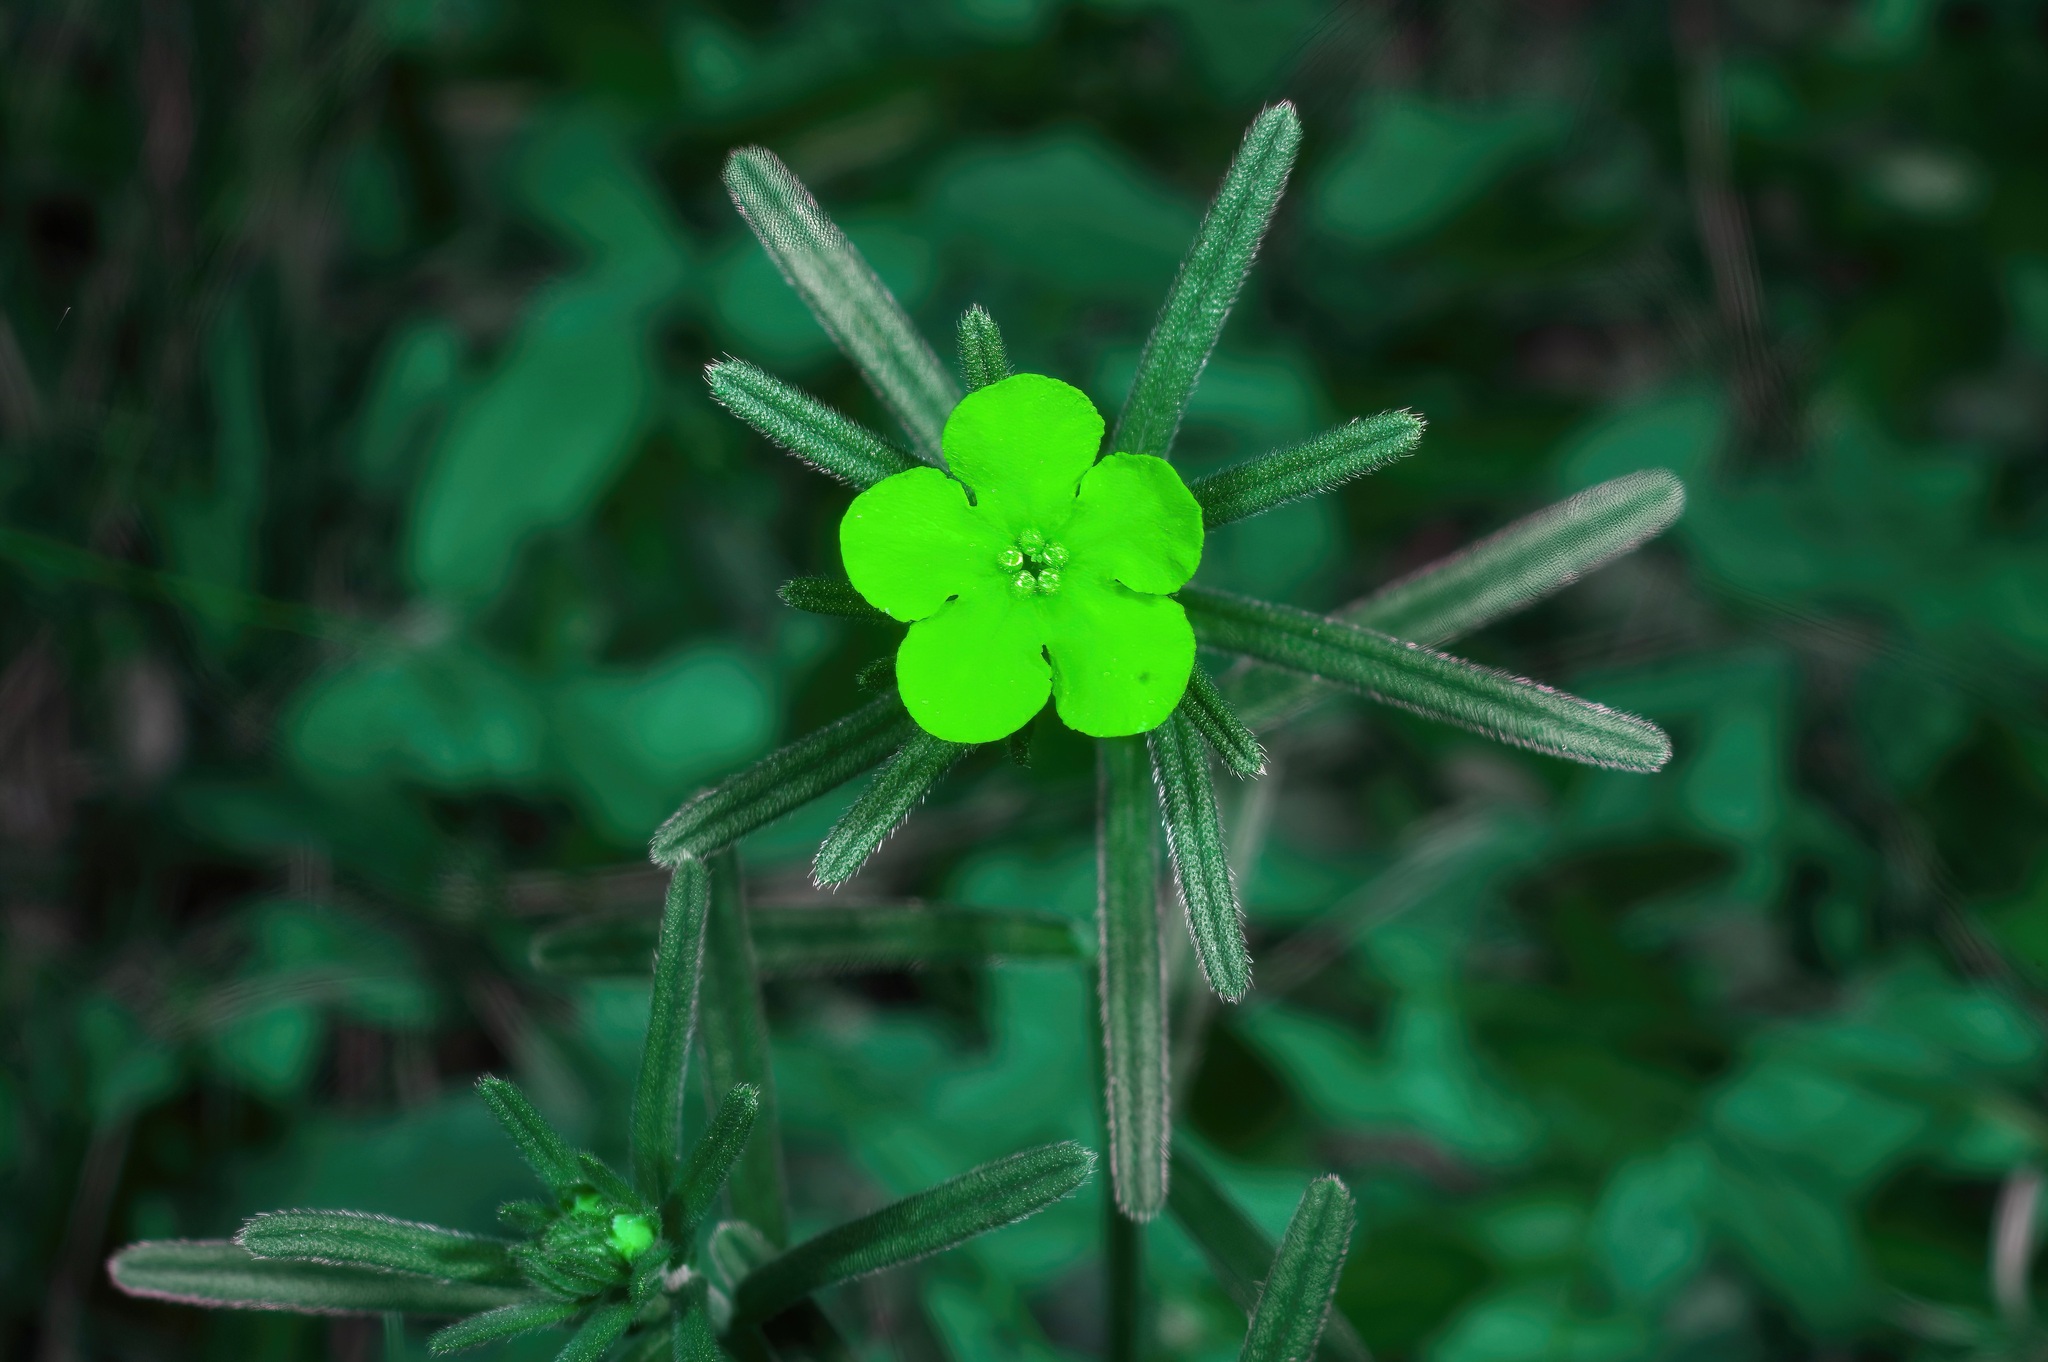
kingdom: Plantae
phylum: Tracheophyta
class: Magnoliopsida
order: Boraginales
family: Boraginaceae
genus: Lithospermum
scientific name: Lithospermum mirabile
